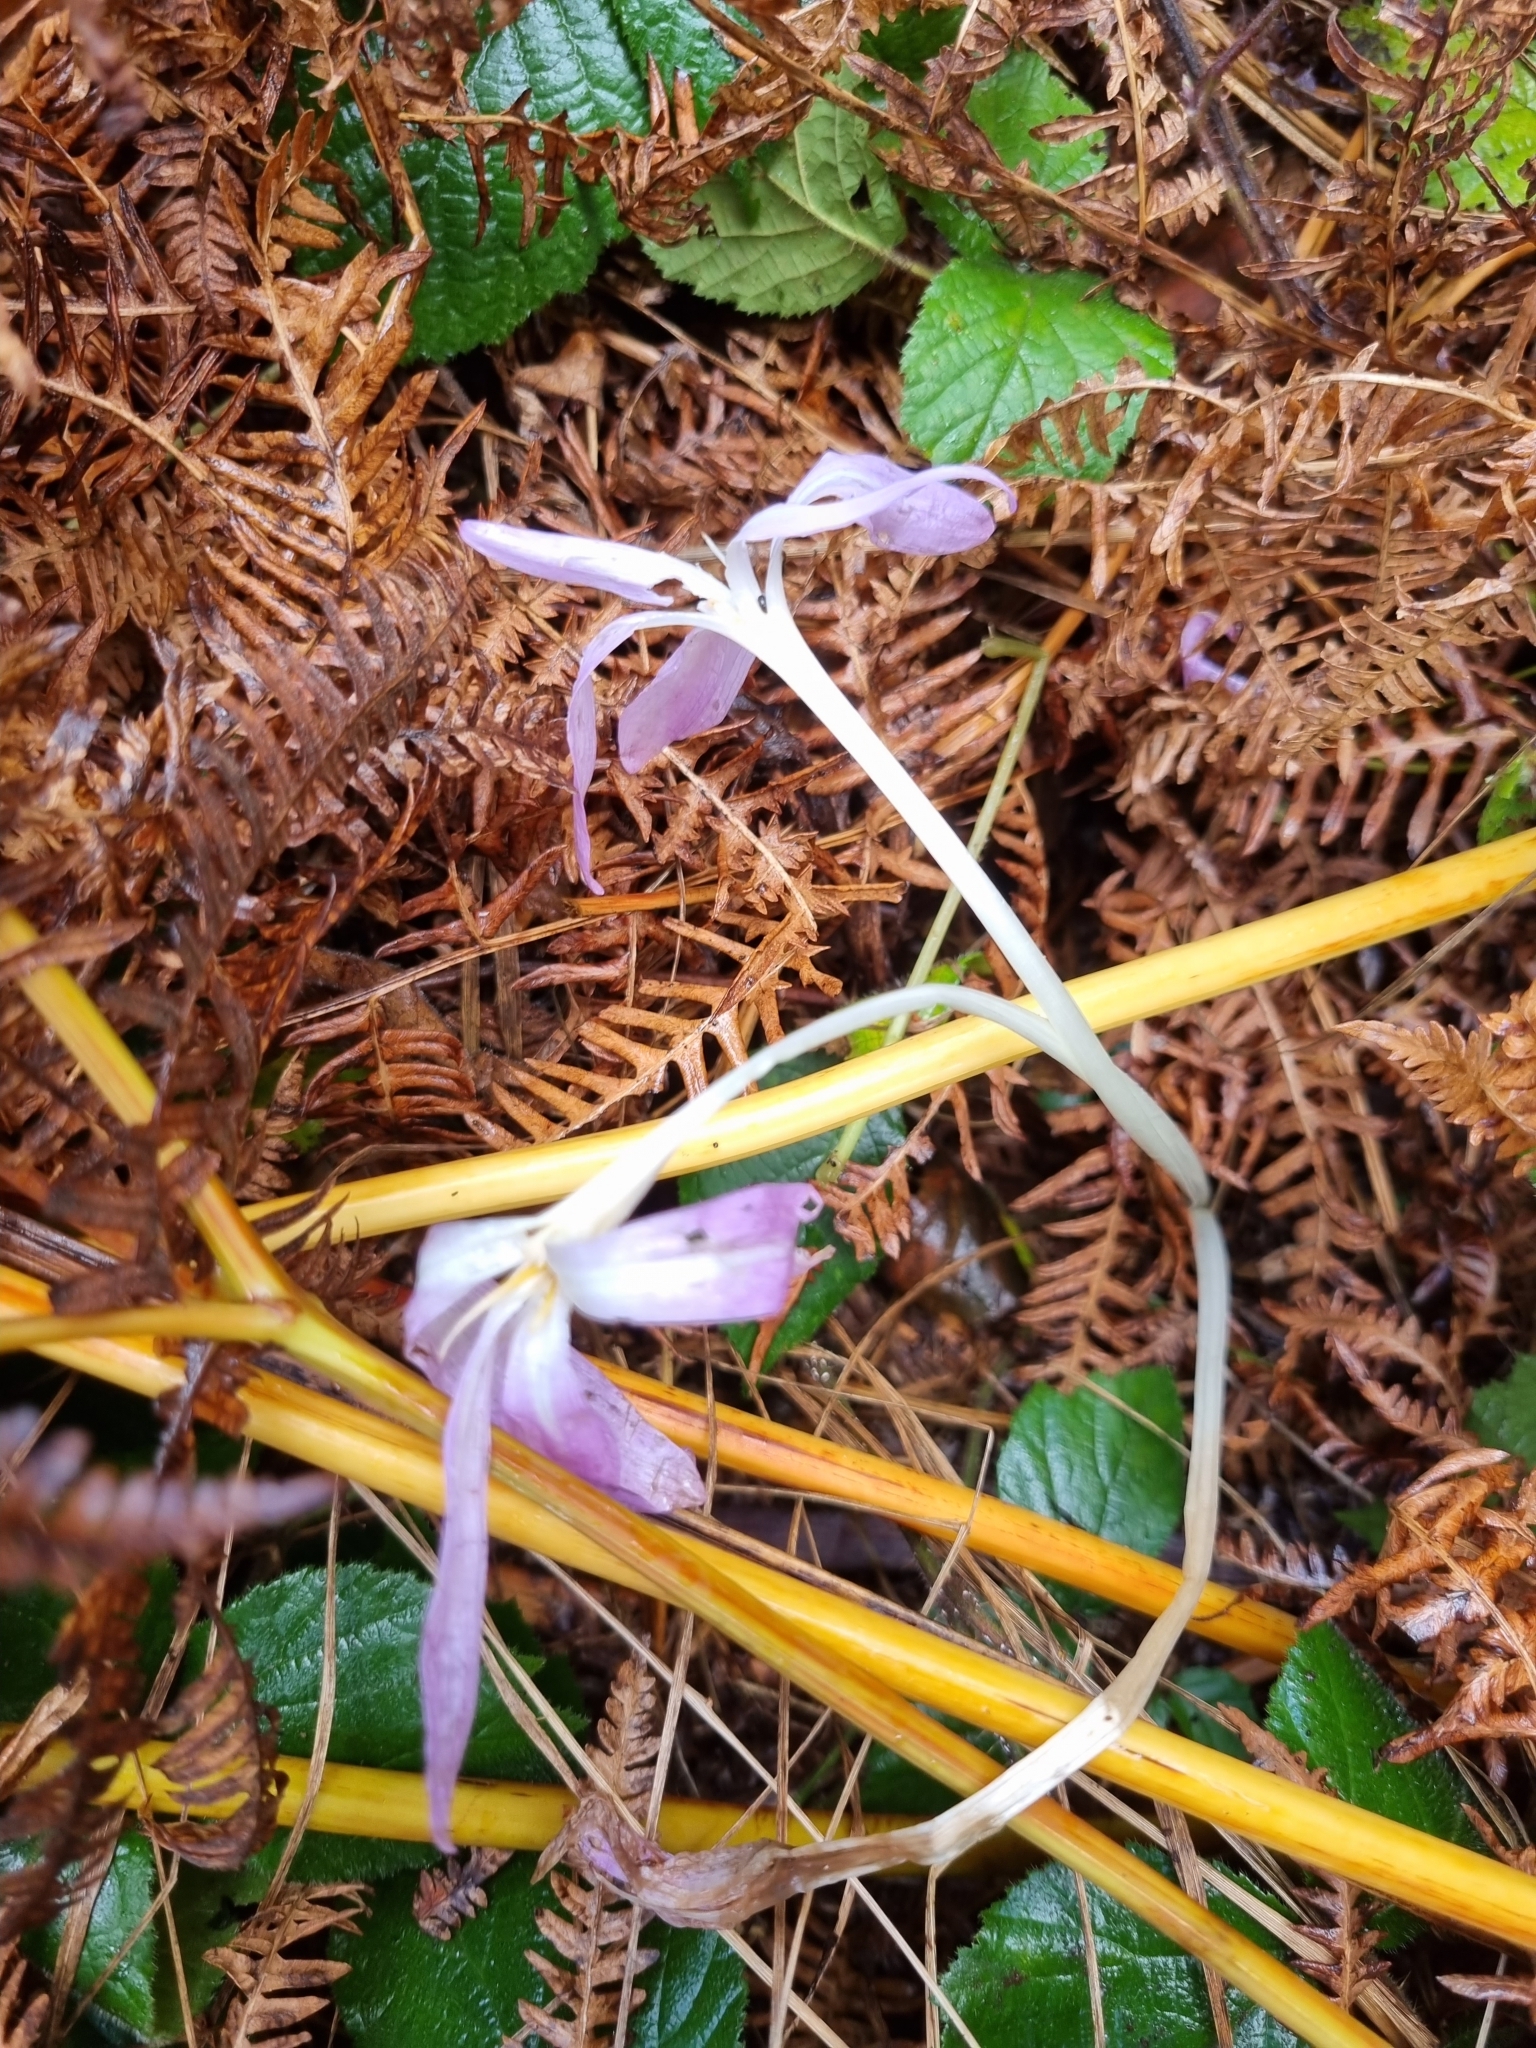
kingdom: Plantae
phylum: Tracheophyta
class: Liliopsida
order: Liliales
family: Colchicaceae
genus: Colchicum
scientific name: Colchicum autumnale
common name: Autumn crocus
